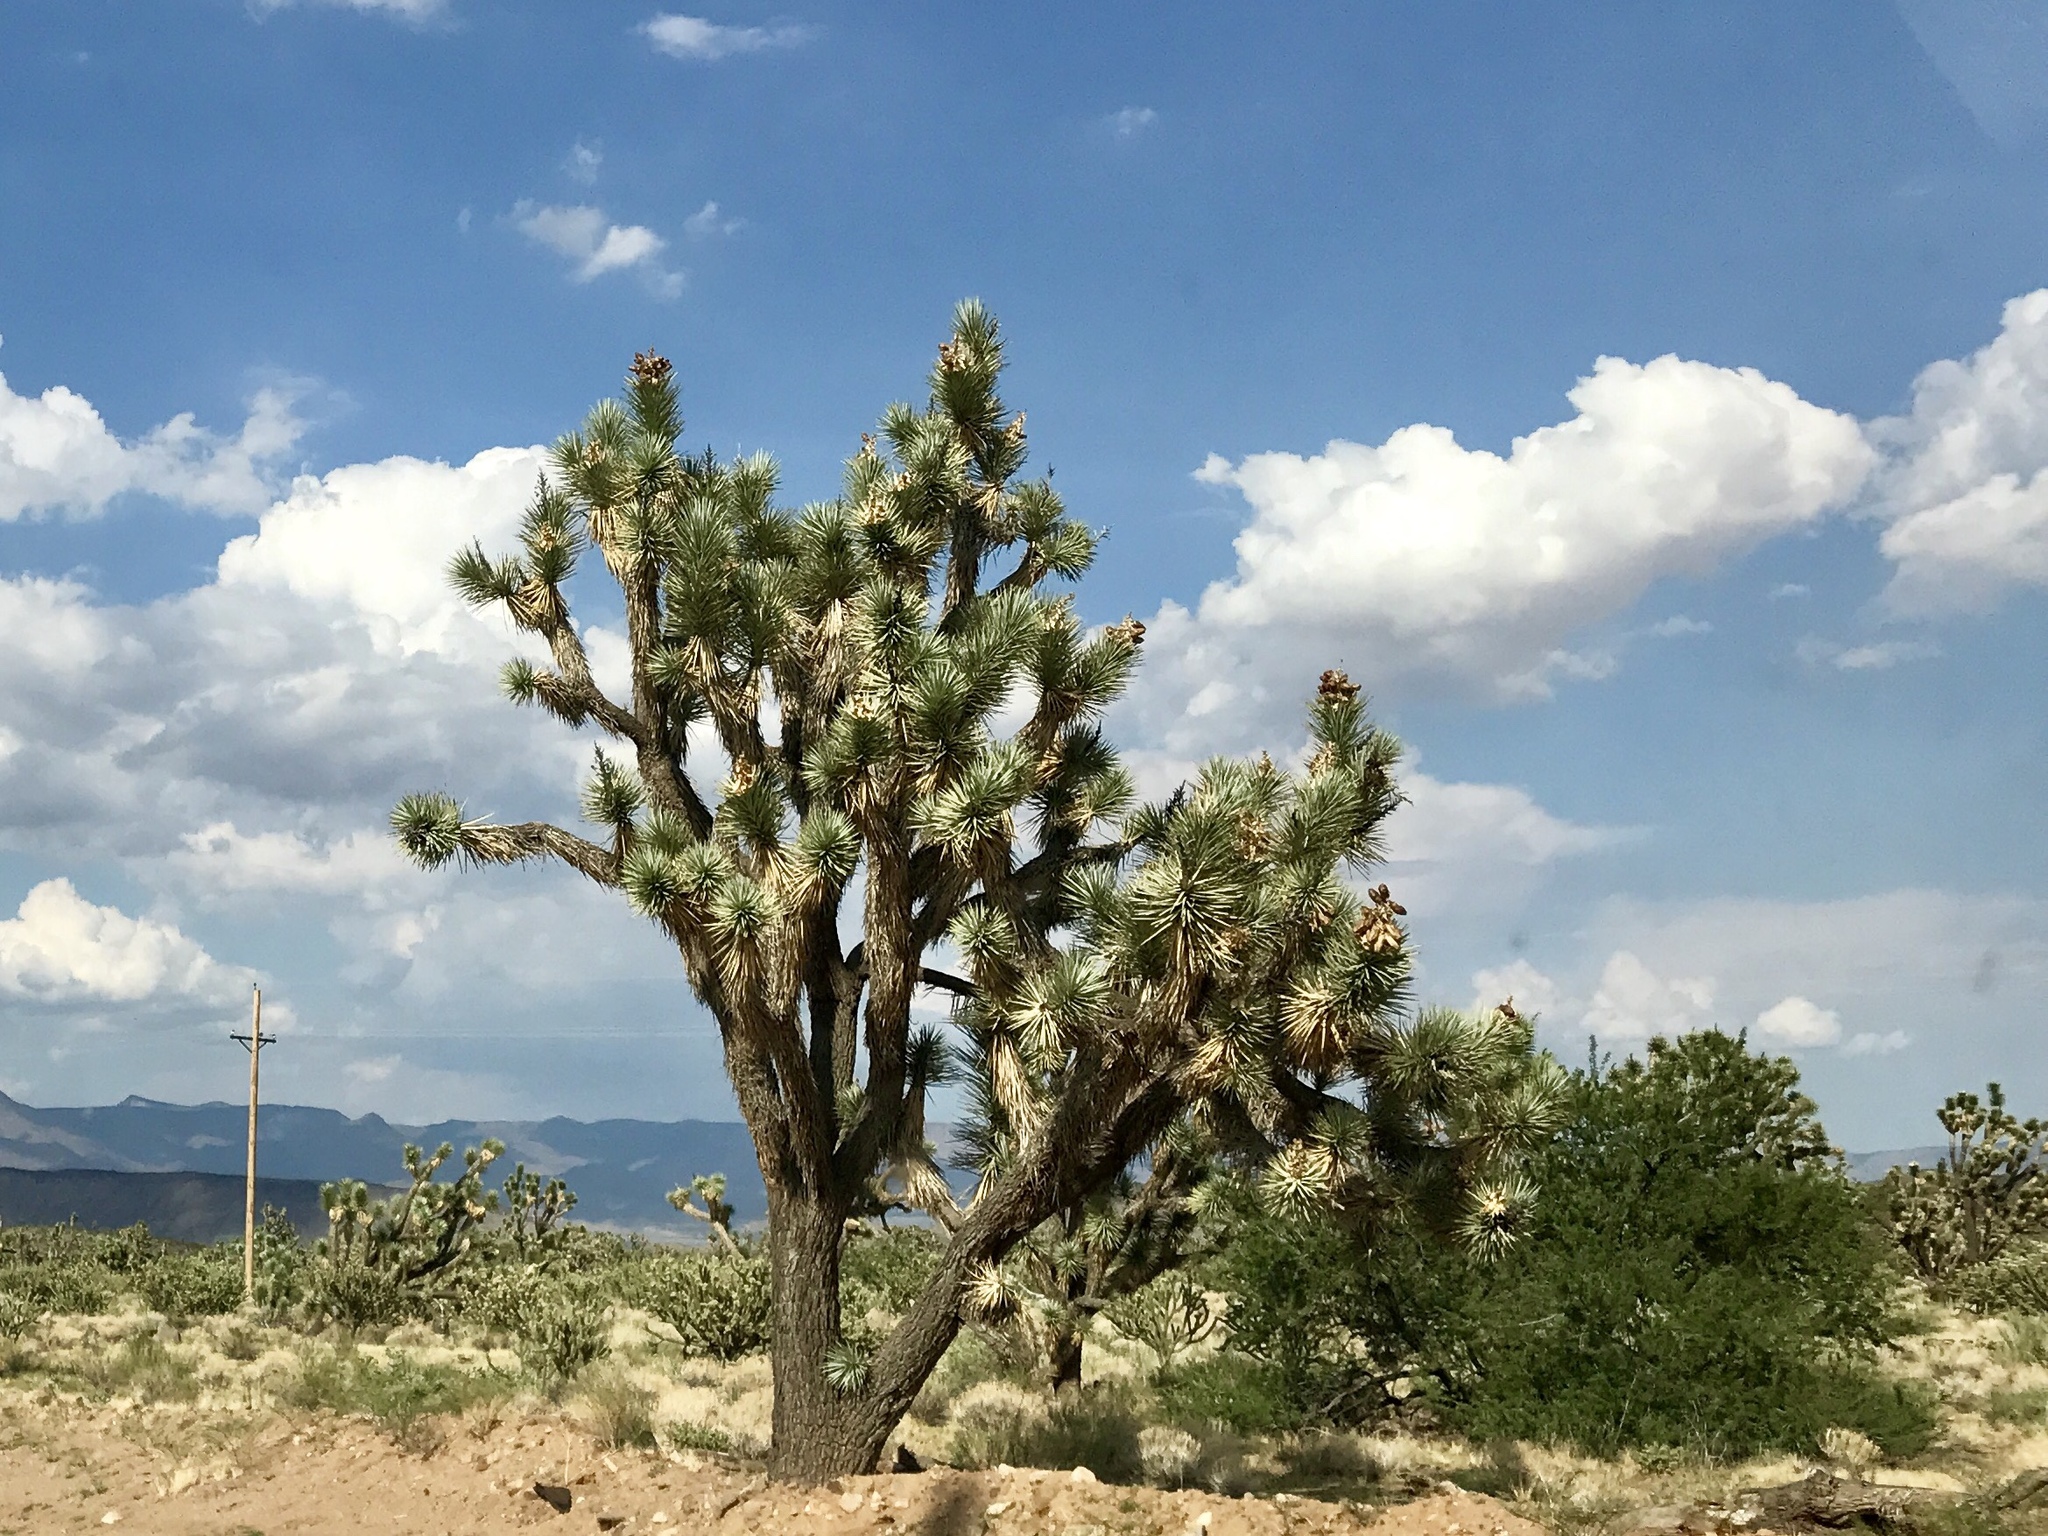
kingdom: Plantae
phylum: Tracheophyta
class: Liliopsida
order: Asparagales
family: Asparagaceae
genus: Yucca
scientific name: Yucca brevifolia
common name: Joshua tree
